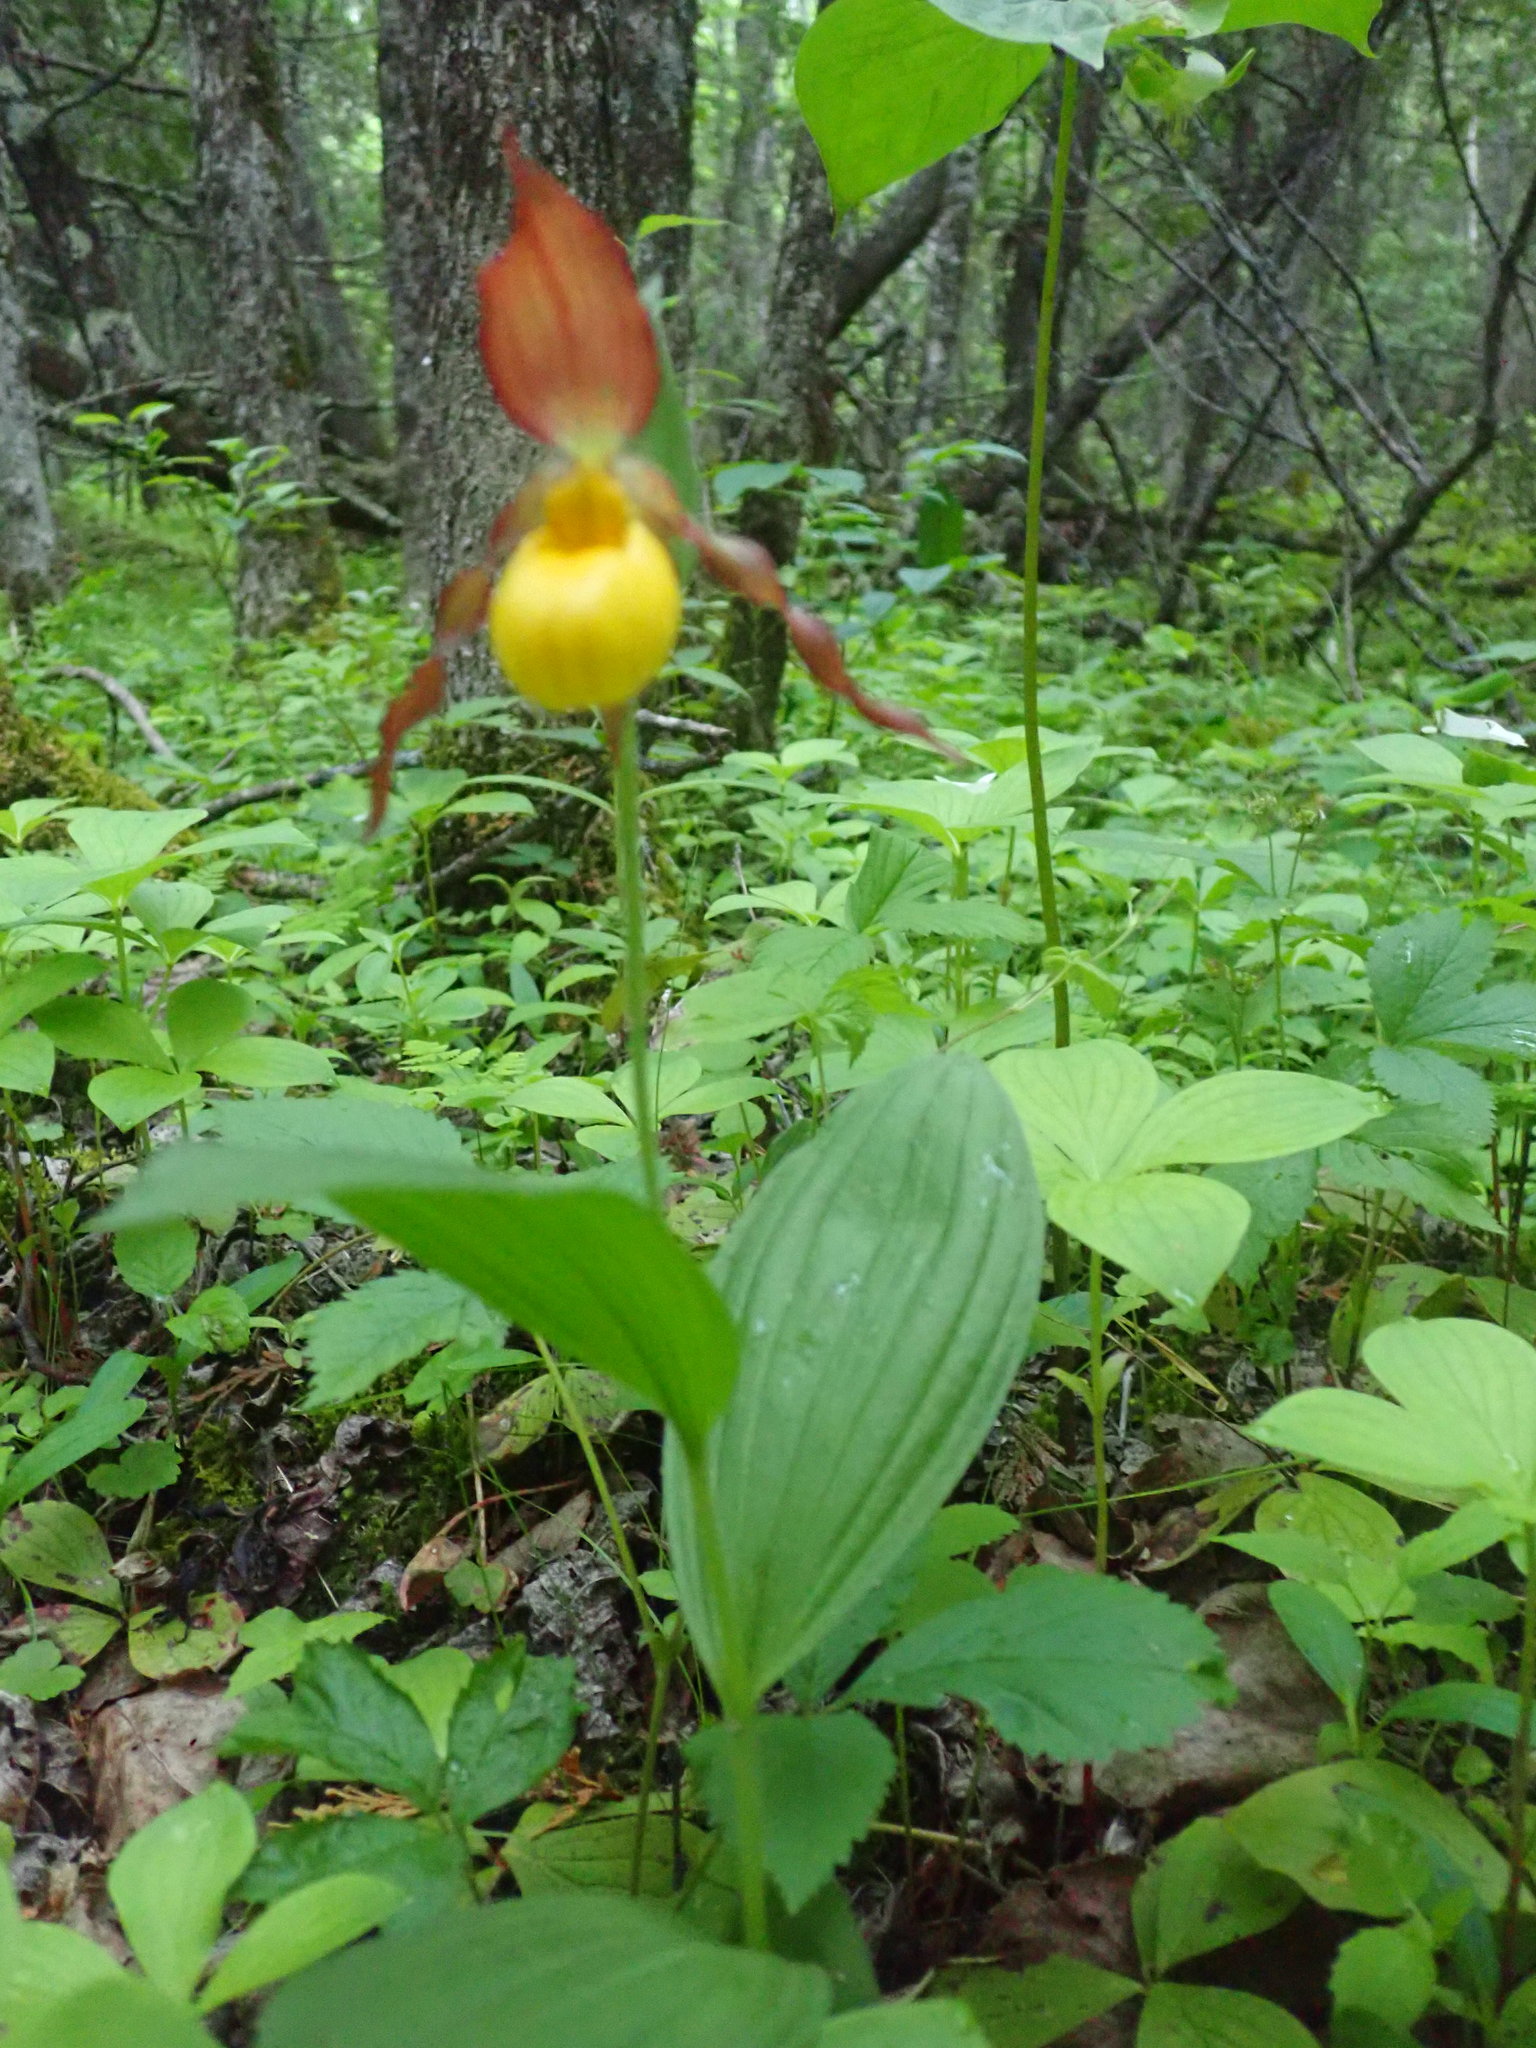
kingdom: Plantae
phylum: Tracheophyta
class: Liliopsida
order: Asparagales
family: Orchidaceae
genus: Cypripedium
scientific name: Cypripedium parviflorum
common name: American yellow lady's-slipper
